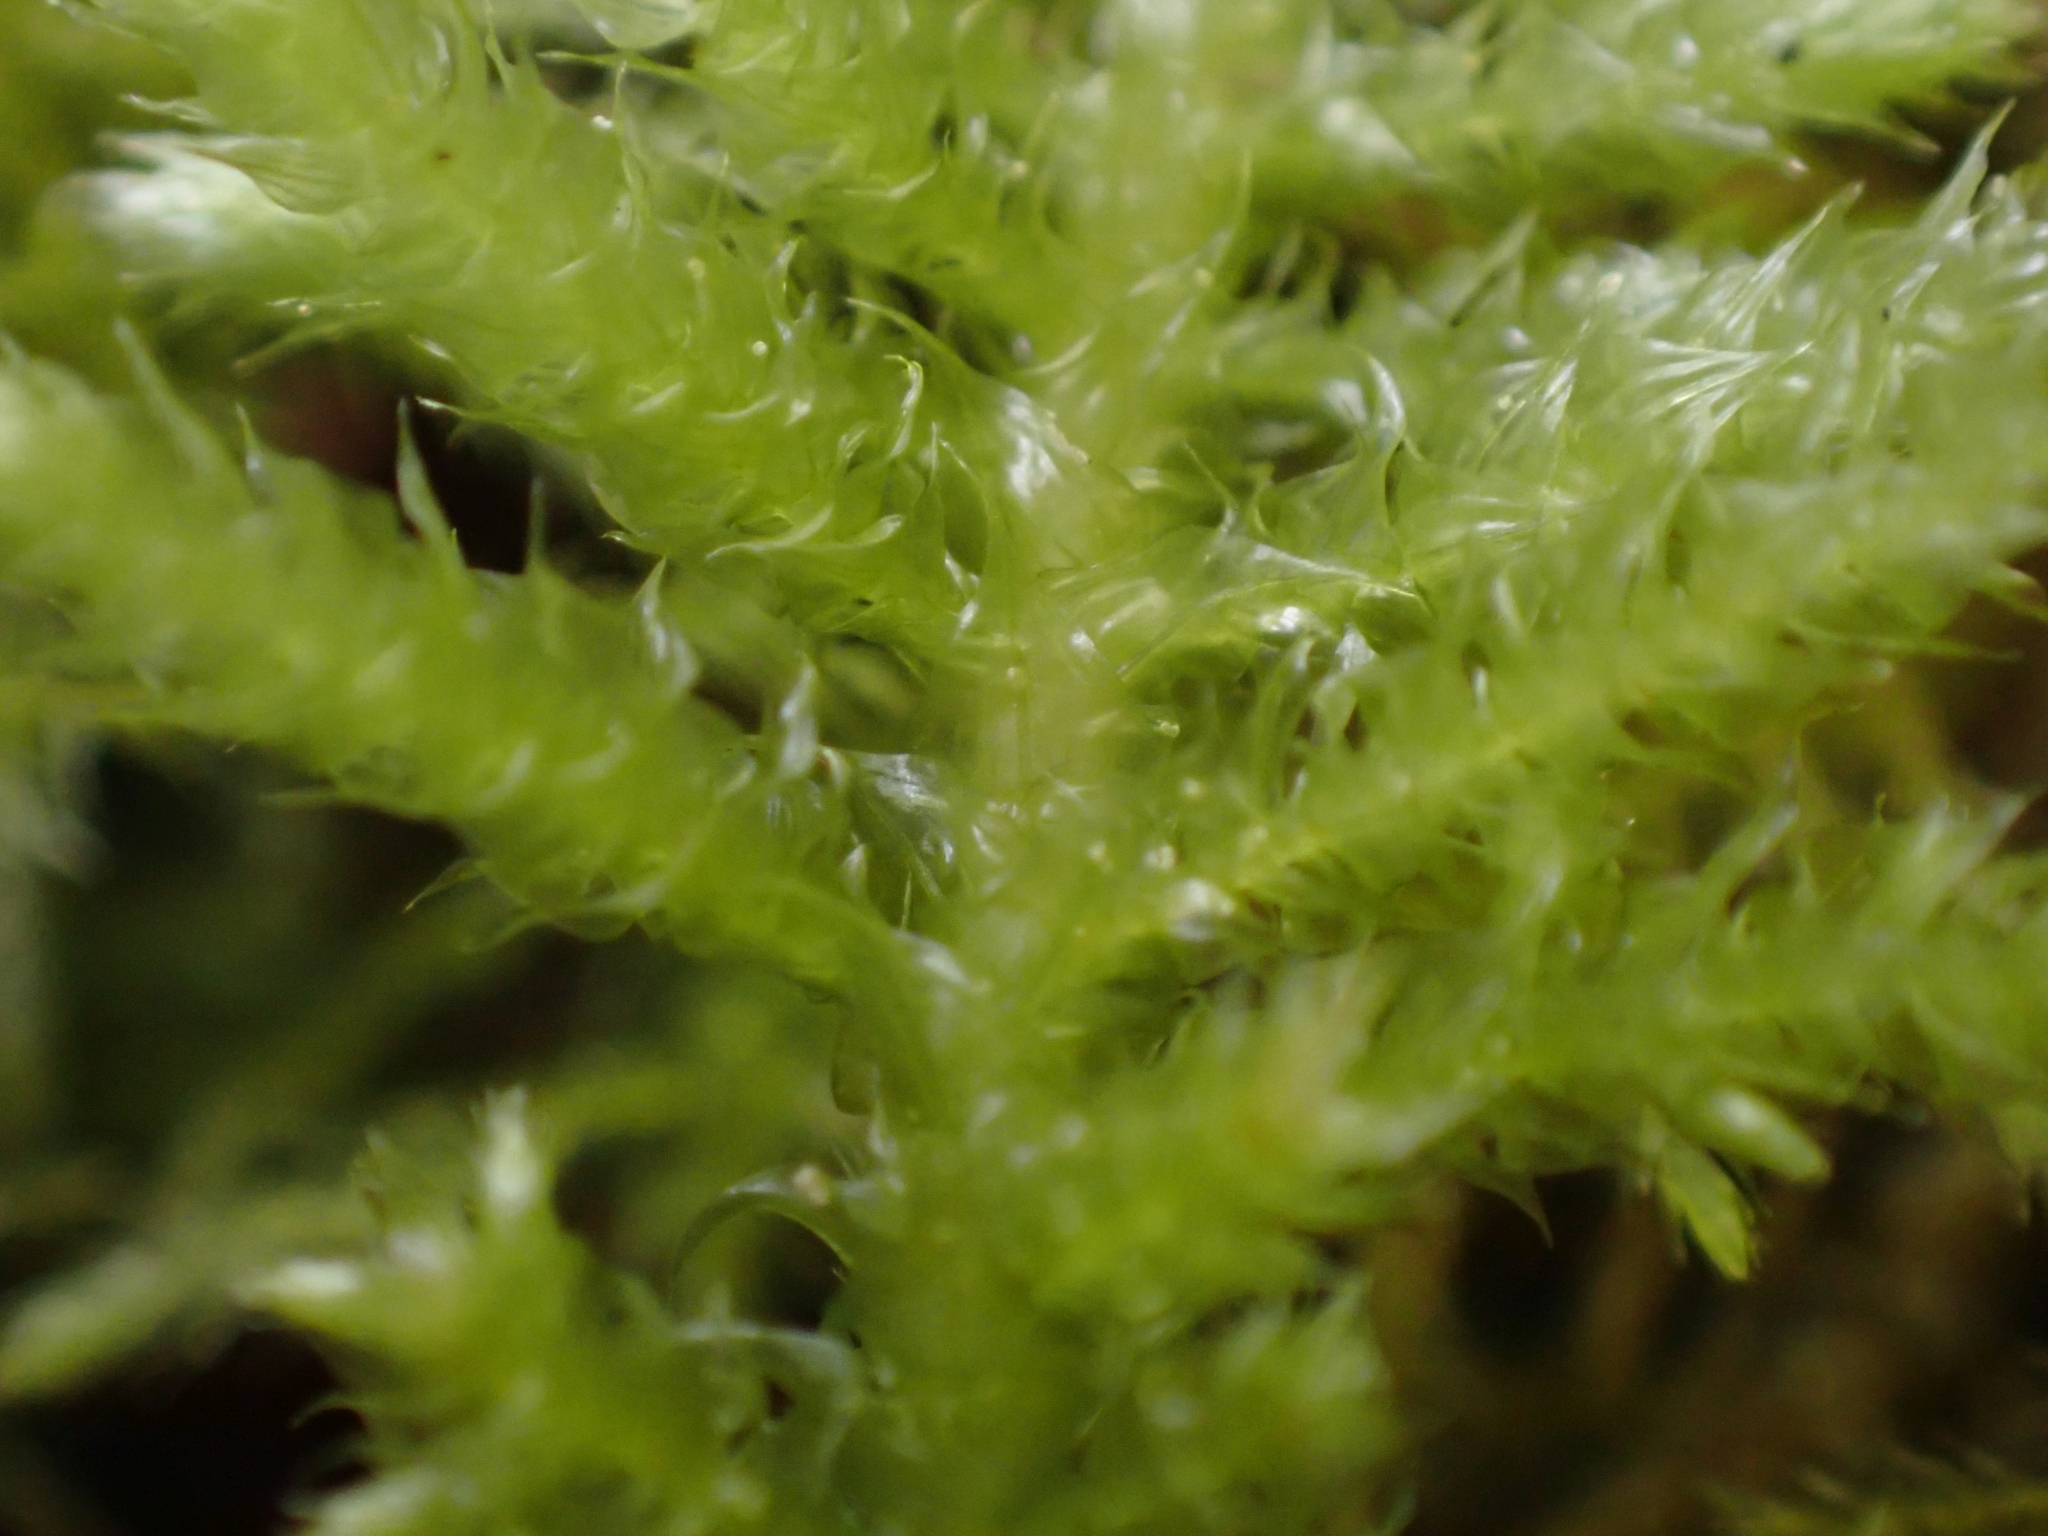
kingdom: Plantae
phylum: Bryophyta
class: Bryopsida
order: Hypnales
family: Brachytheciaceae
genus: Kindbergia
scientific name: Kindbergia oregana
